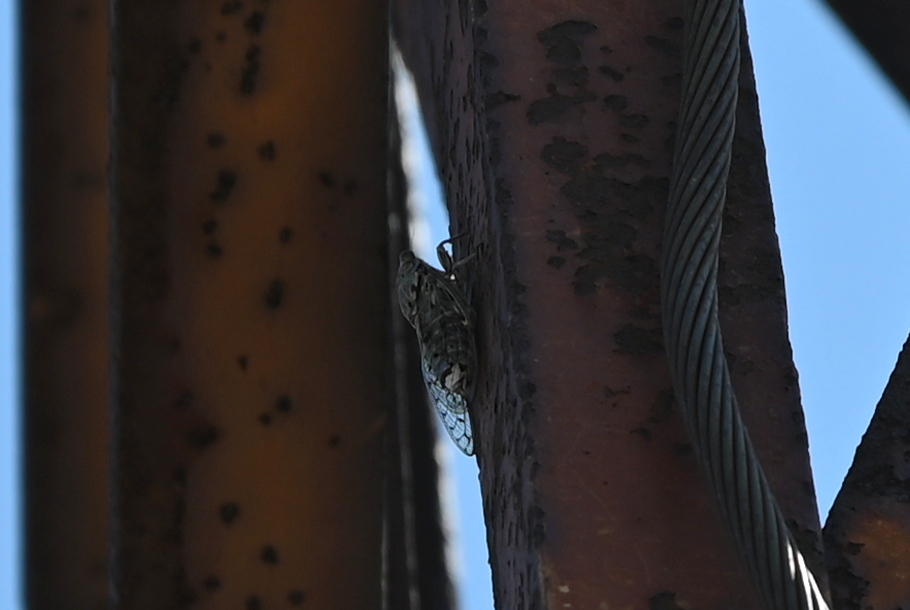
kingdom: Animalia
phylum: Arthropoda
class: Insecta
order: Hemiptera
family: Cicadidae
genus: Cicada
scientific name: Cicada orni
